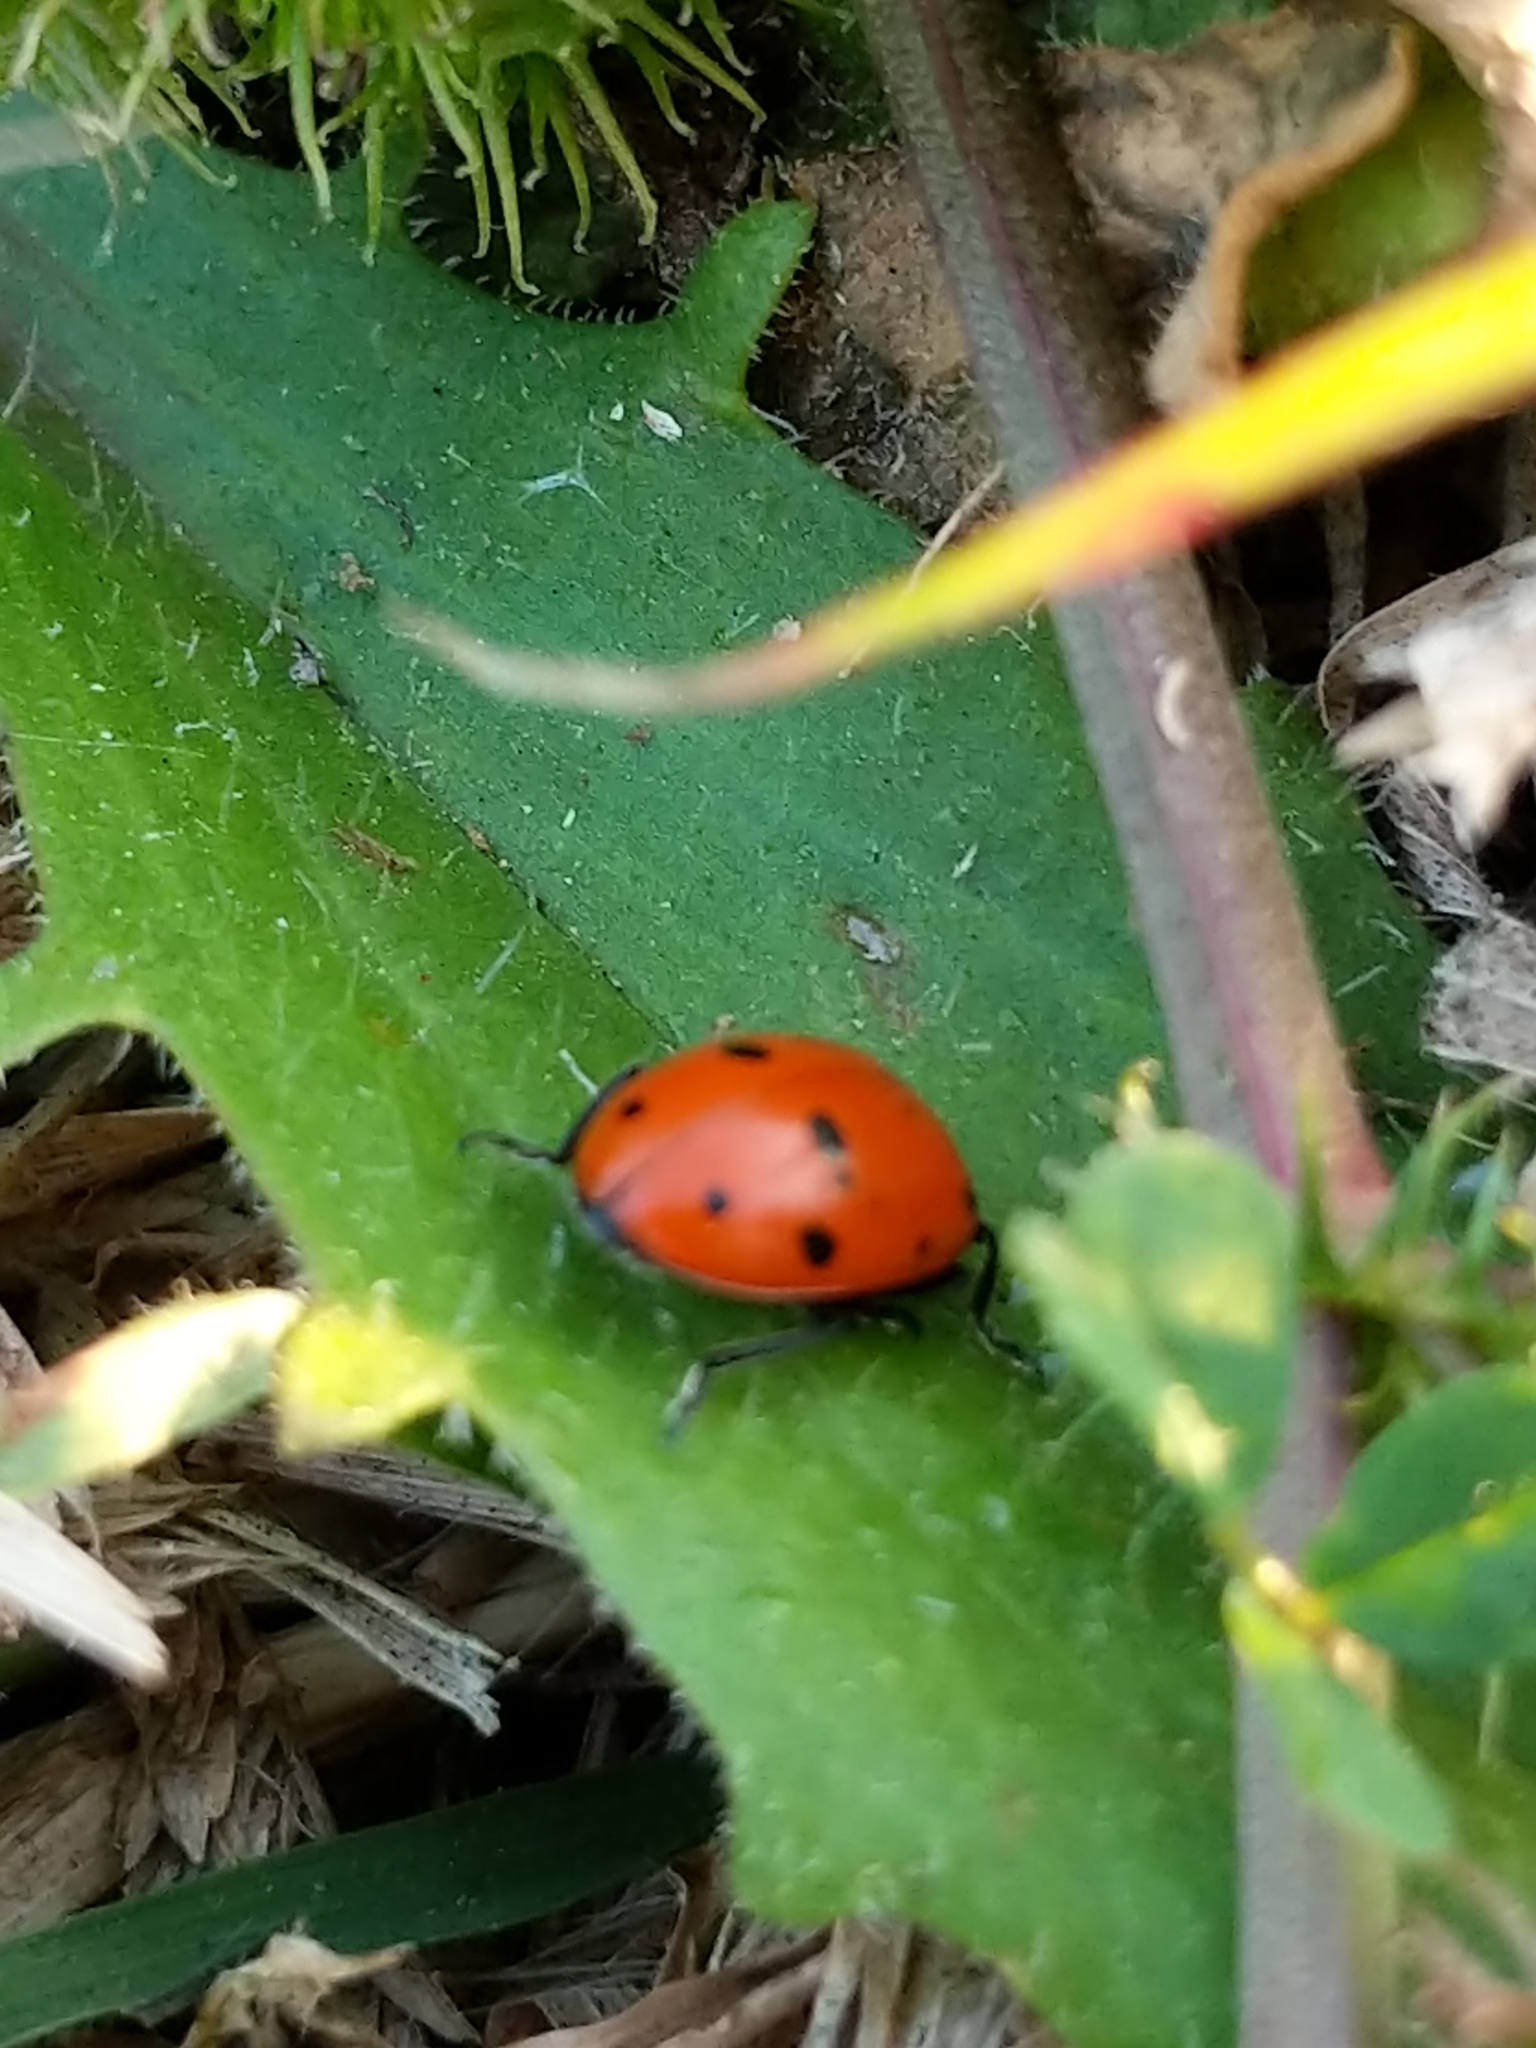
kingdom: Animalia
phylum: Arthropoda
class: Insecta
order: Coleoptera
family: Coccinellidae
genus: Hippodamia
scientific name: Hippodamia convergens
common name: Convergent lady beetle
